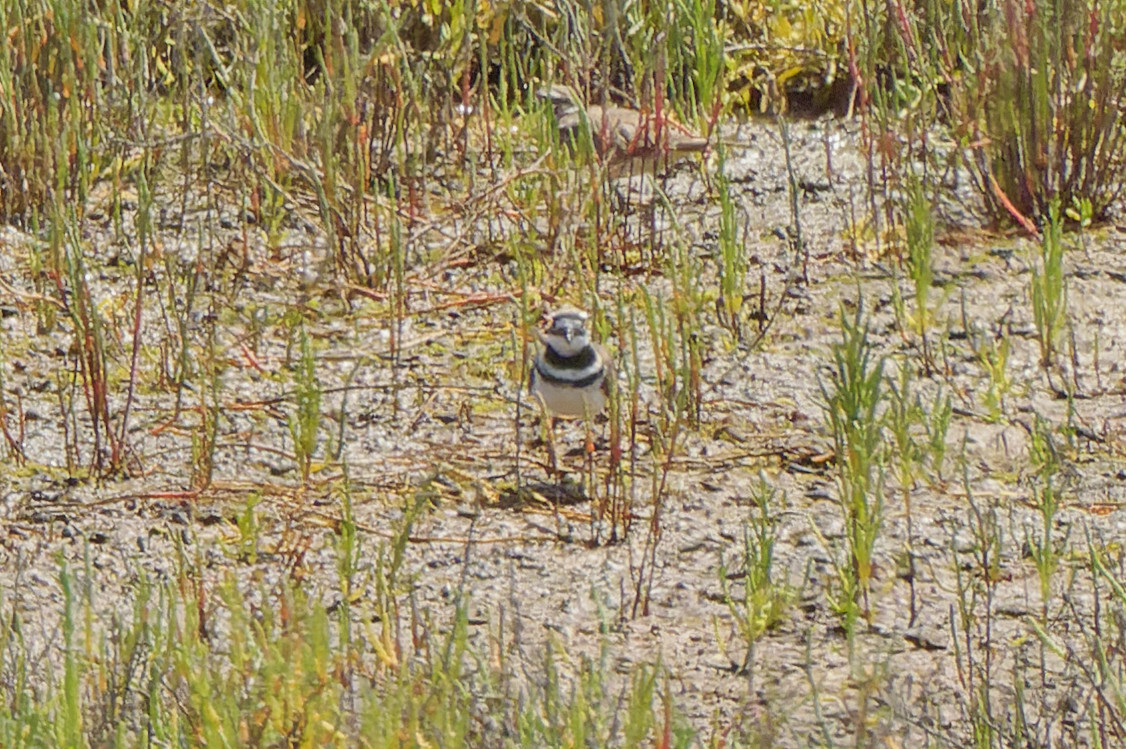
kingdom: Animalia
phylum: Chordata
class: Aves
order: Charadriiformes
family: Charadriidae
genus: Charadrius
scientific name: Charadrius vociferus
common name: Killdeer
